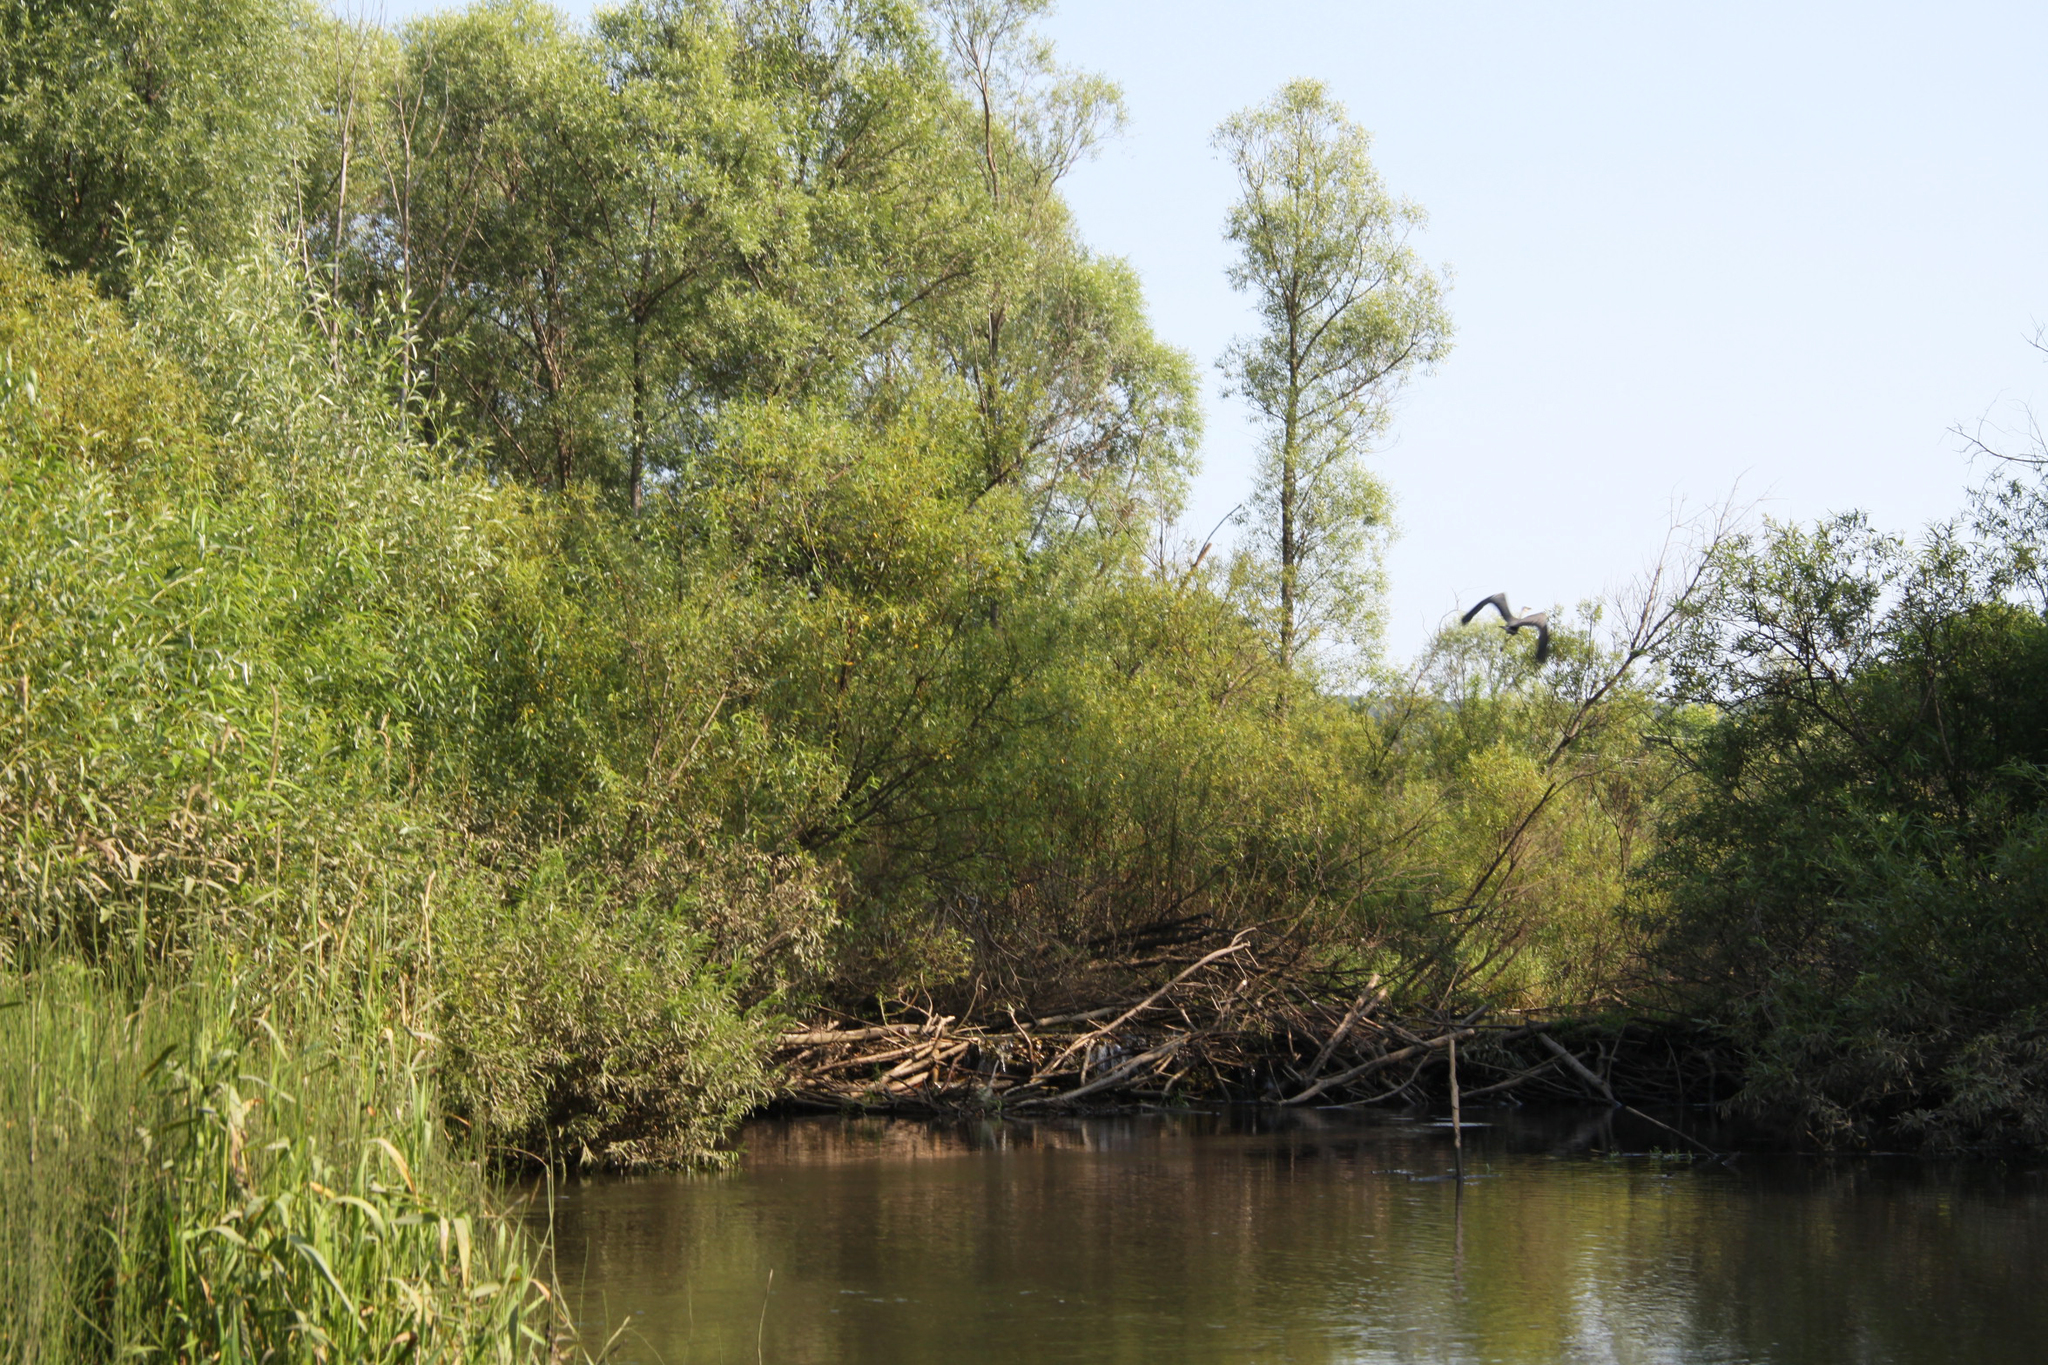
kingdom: Animalia
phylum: Chordata
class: Aves
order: Pelecaniformes
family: Ardeidae
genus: Ardea
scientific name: Ardea cinerea
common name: Grey heron
